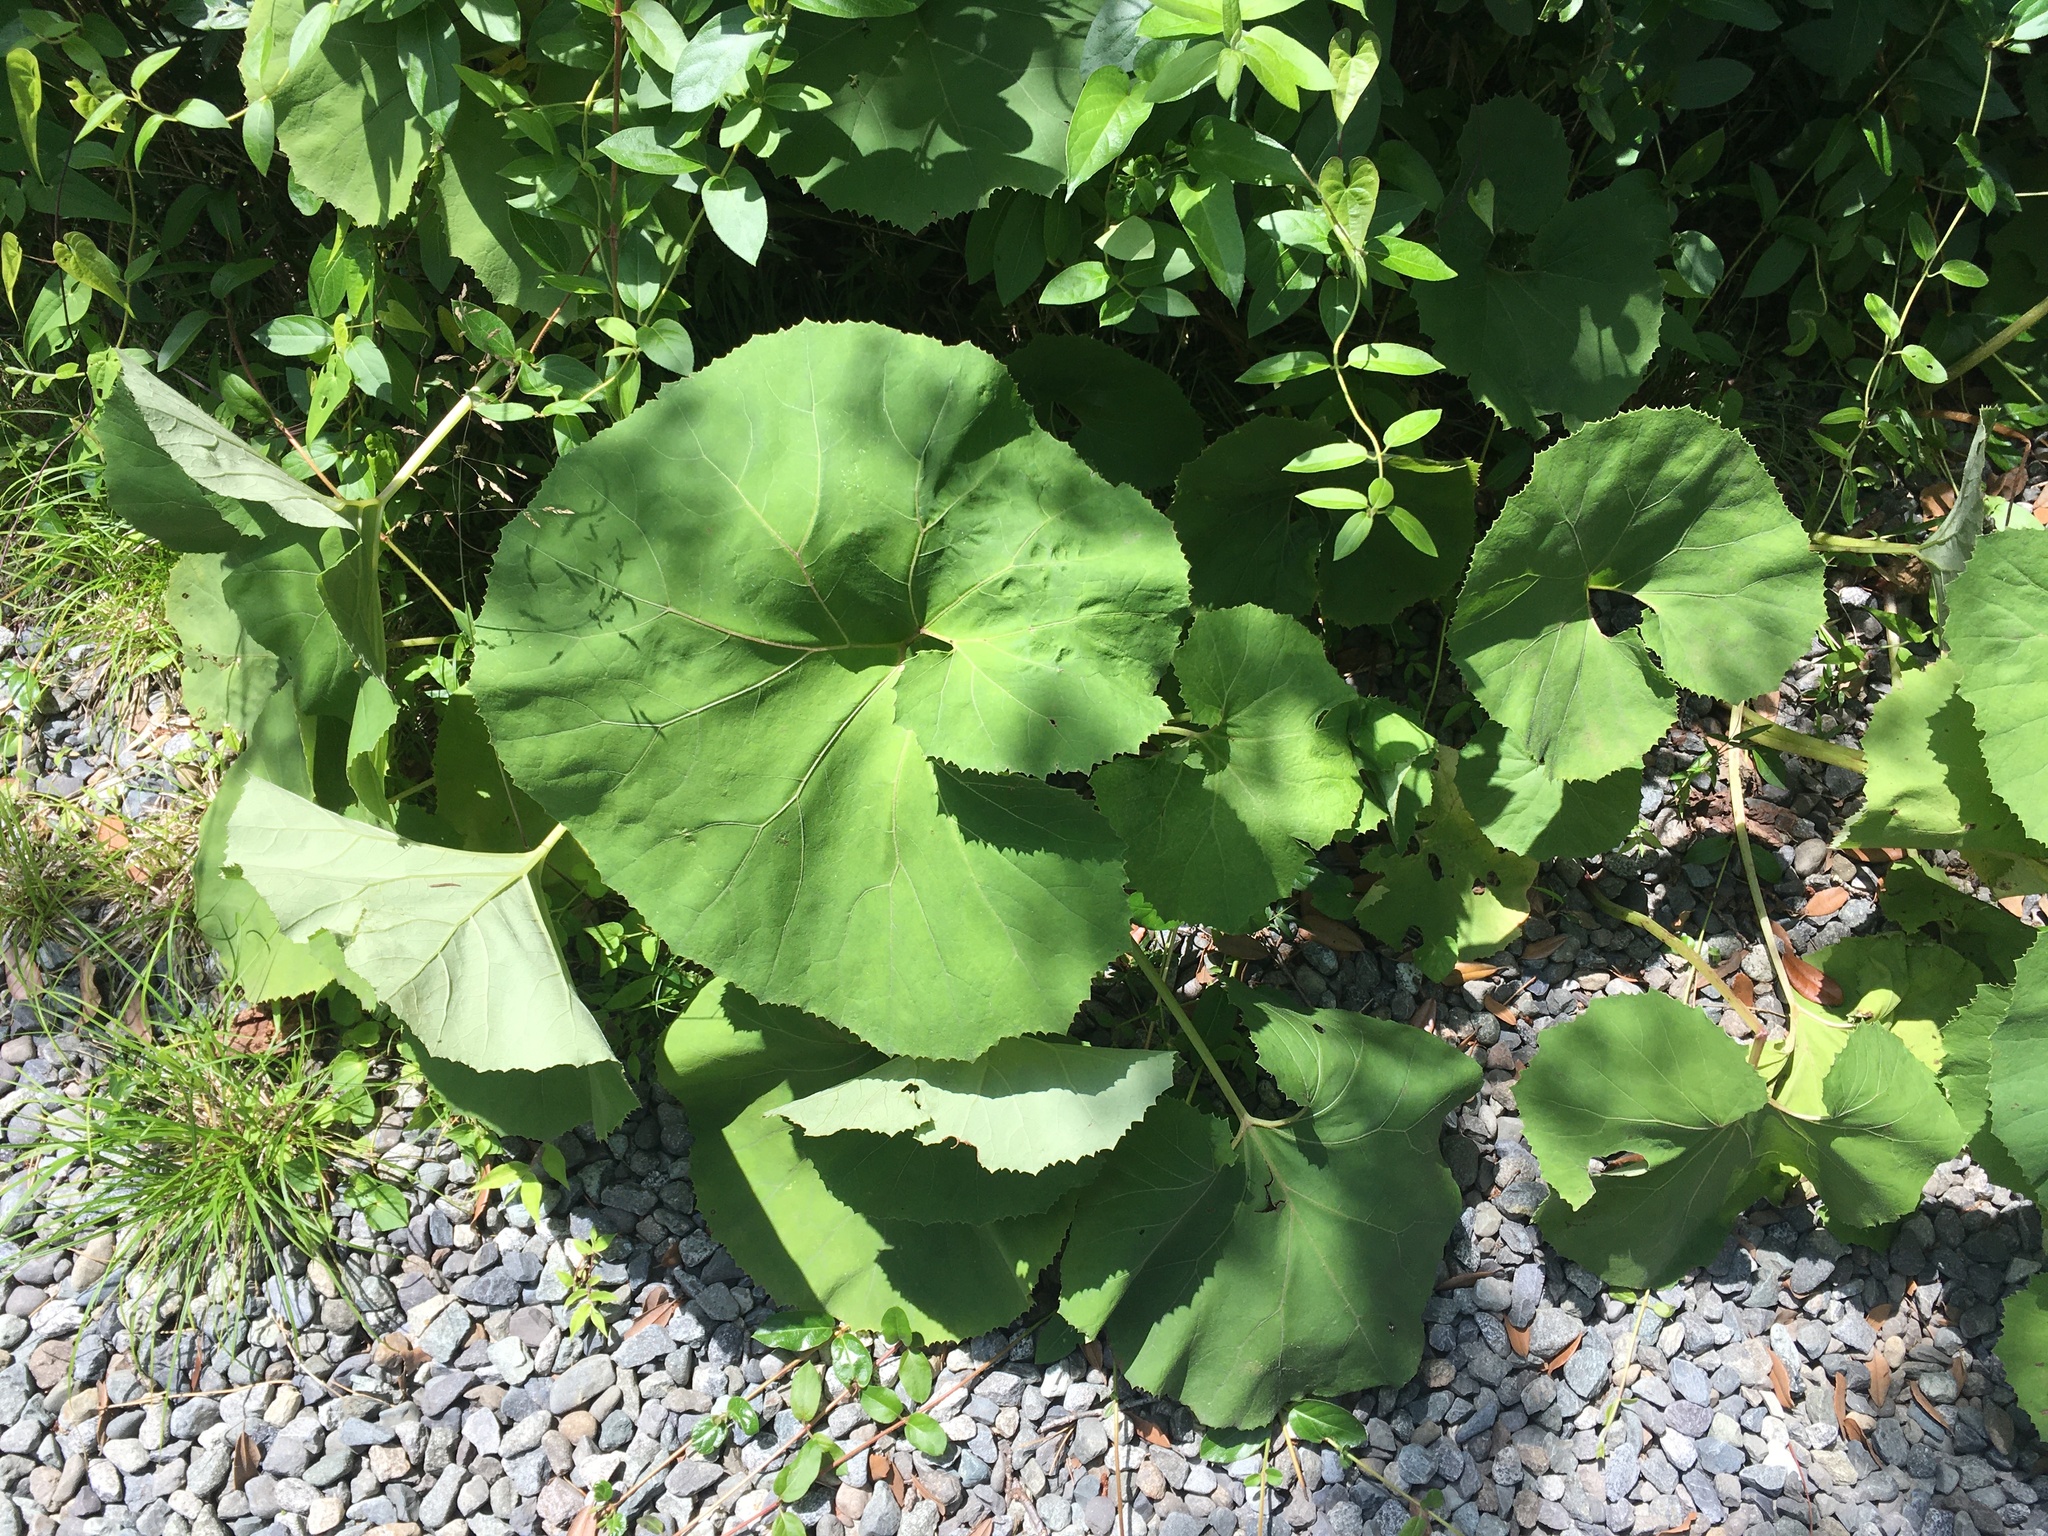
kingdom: Plantae
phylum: Tracheophyta
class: Magnoliopsida
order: Asterales
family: Asteraceae
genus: Petasites
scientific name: Petasites japonicus
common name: Giant butterbur
